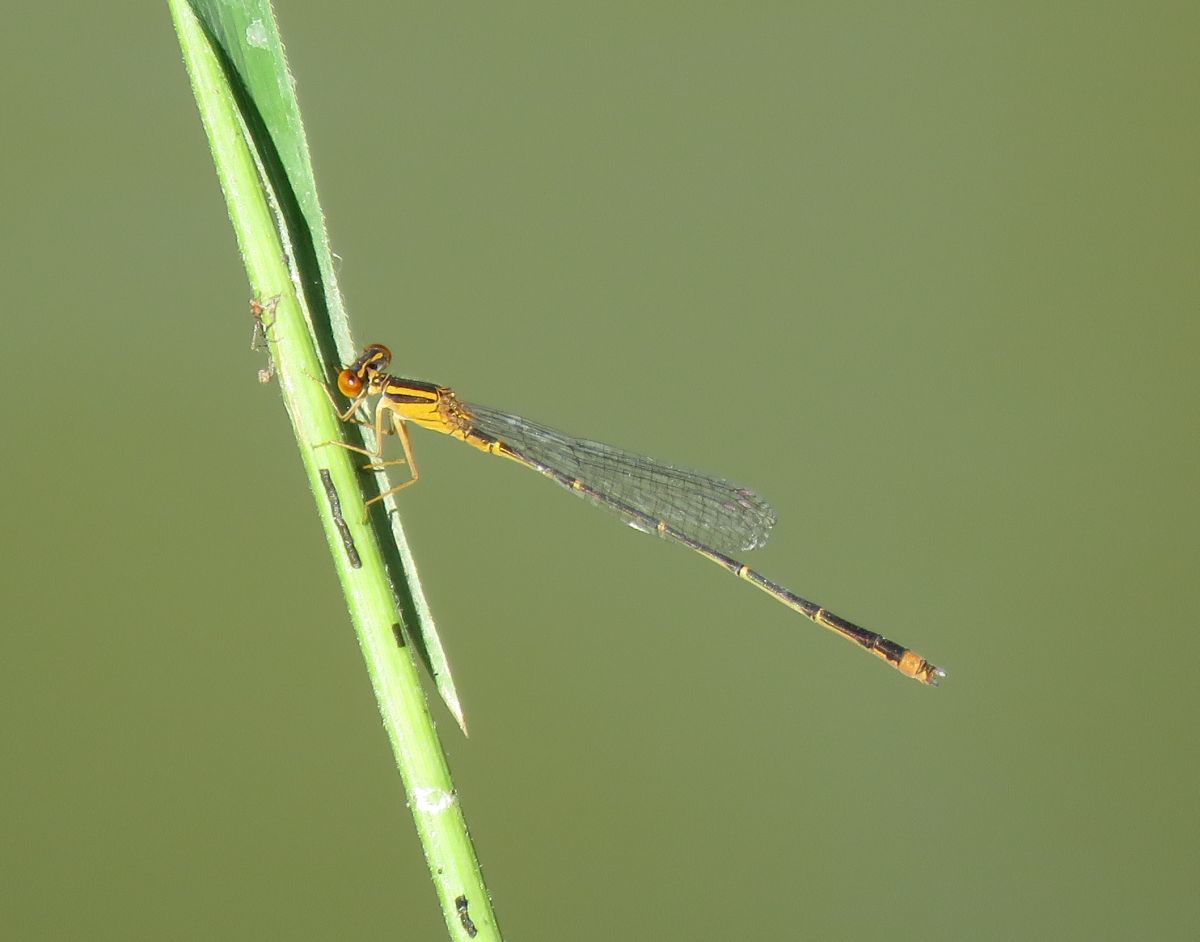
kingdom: Animalia
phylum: Arthropoda
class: Insecta
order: Odonata
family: Coenagrionidae
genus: Enallagma
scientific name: Enallagma signatum
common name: Orange bluet
